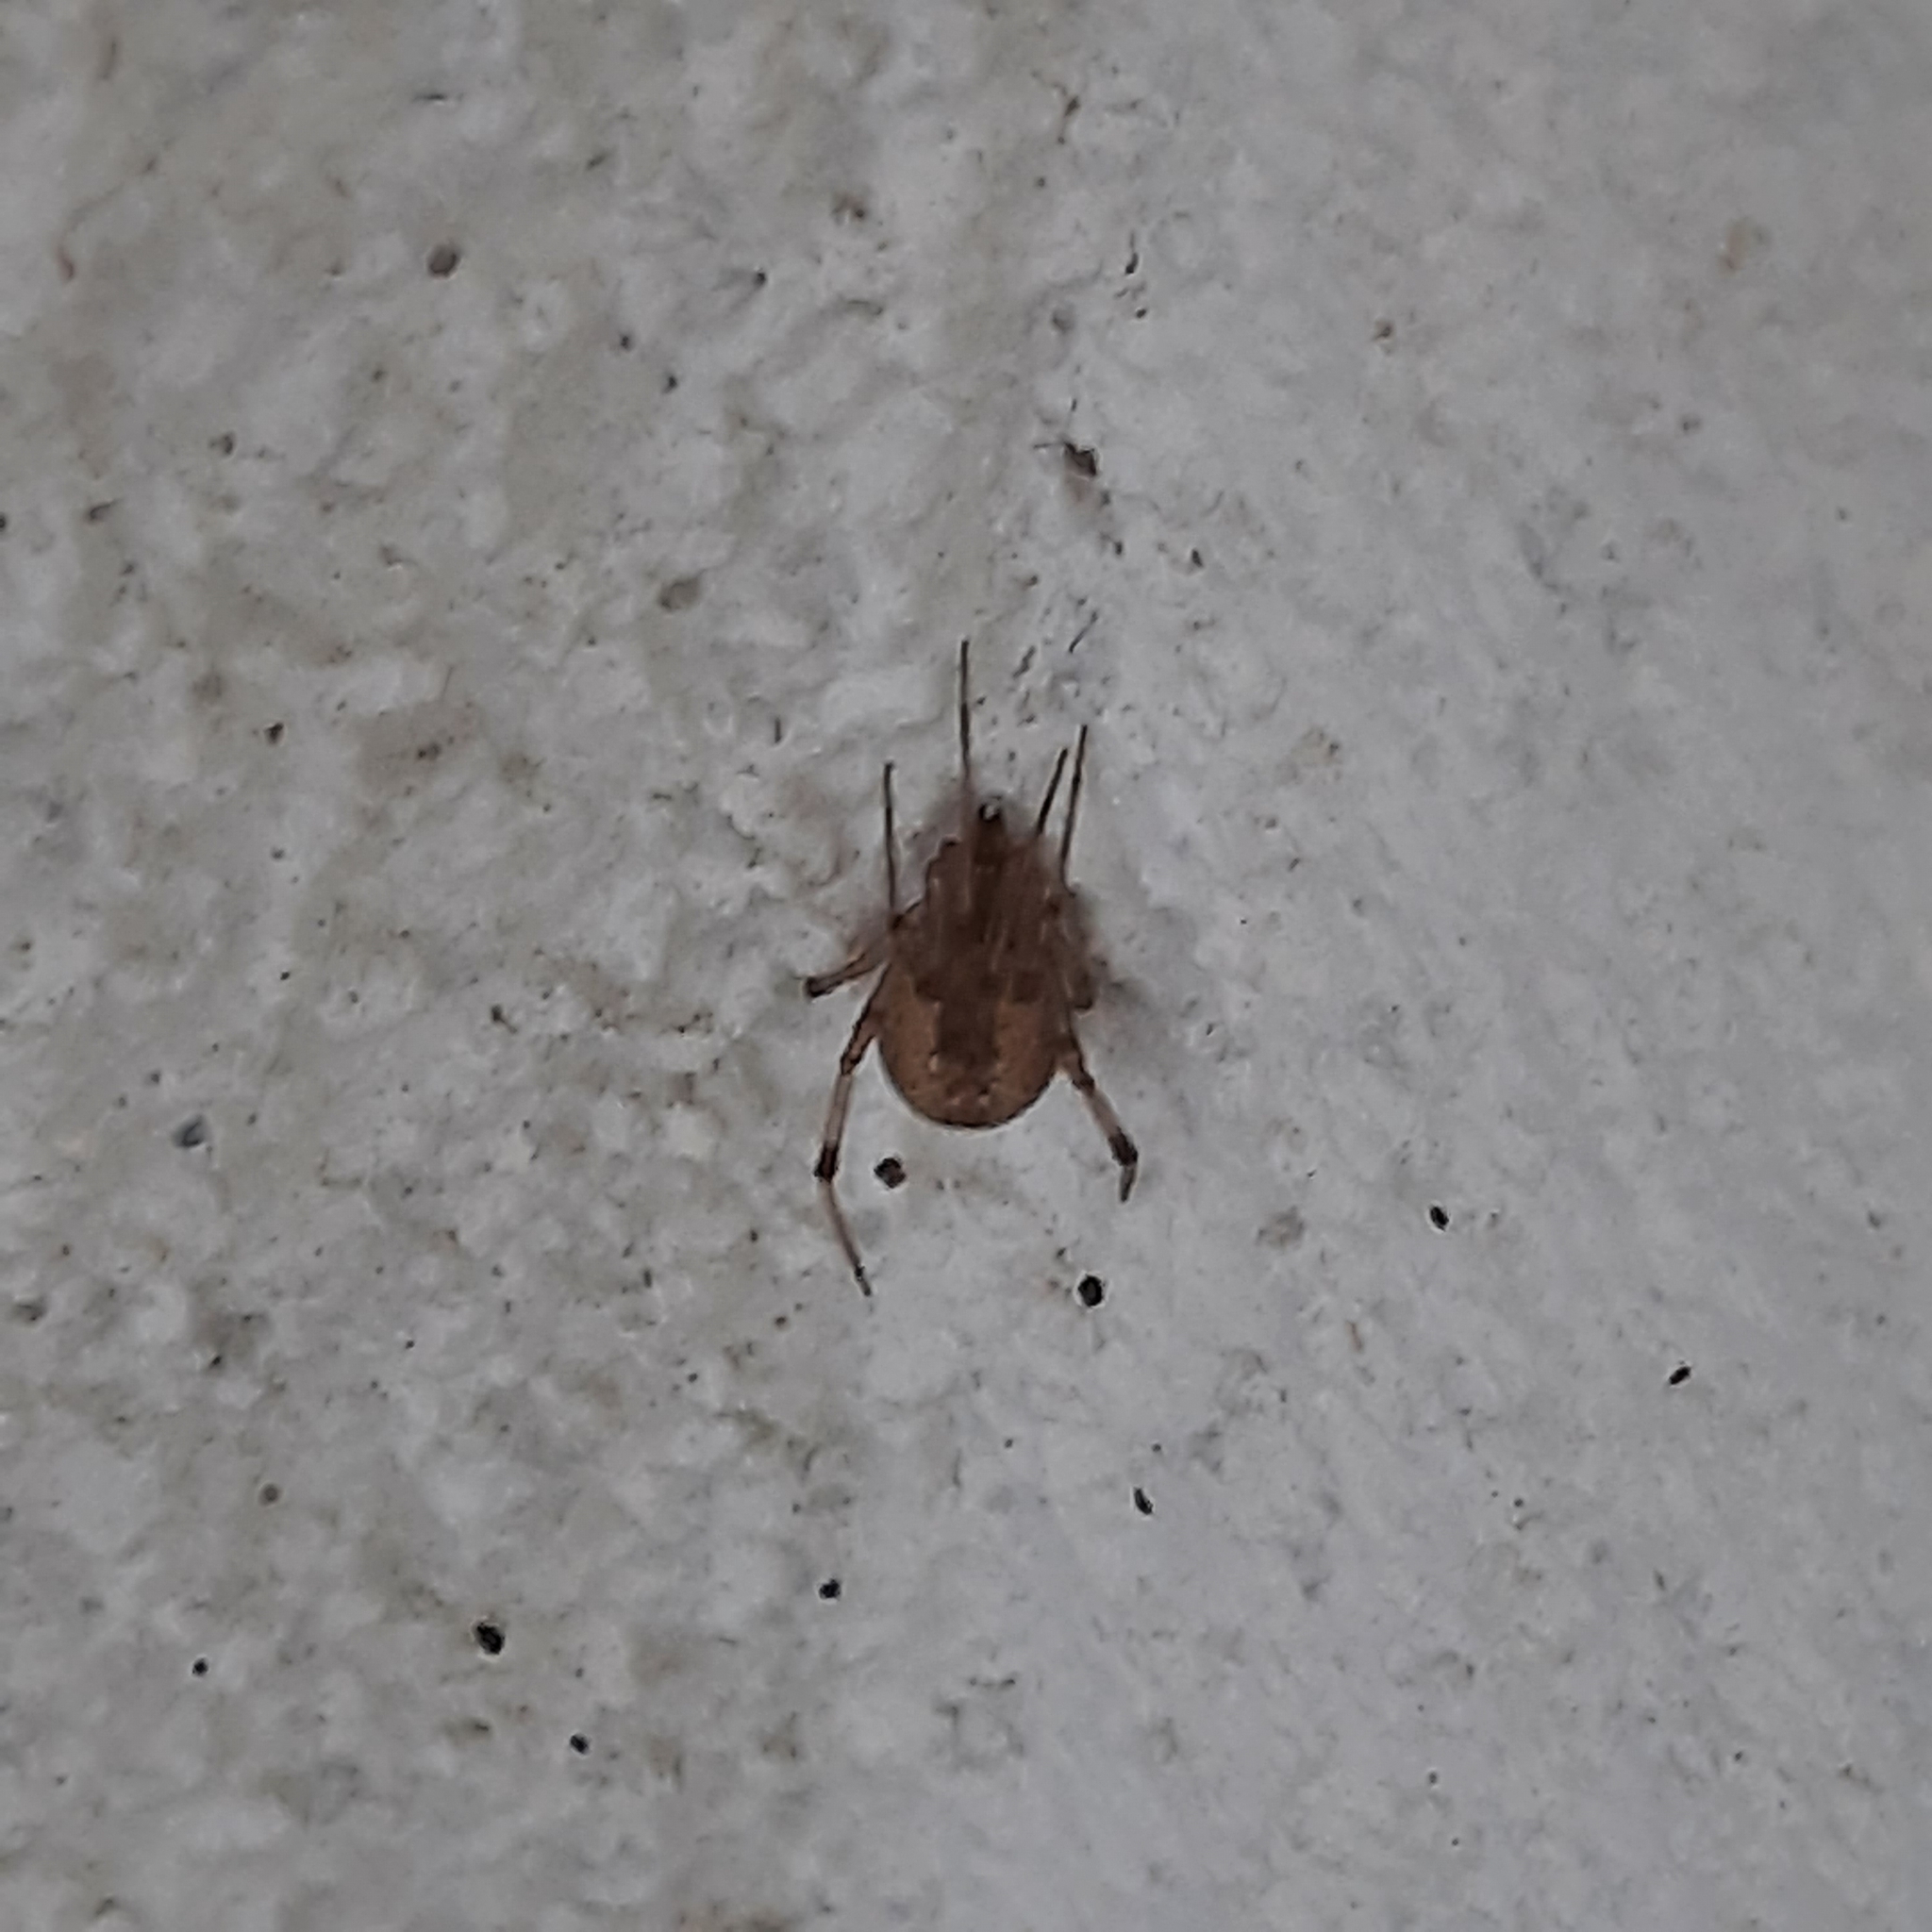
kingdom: Animalia
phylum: Arthropoda
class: Arachnida
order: Araneae
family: Theridiidae
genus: Parasteatoda
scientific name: Parasteatoda tepidariorum
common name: Common house spider
